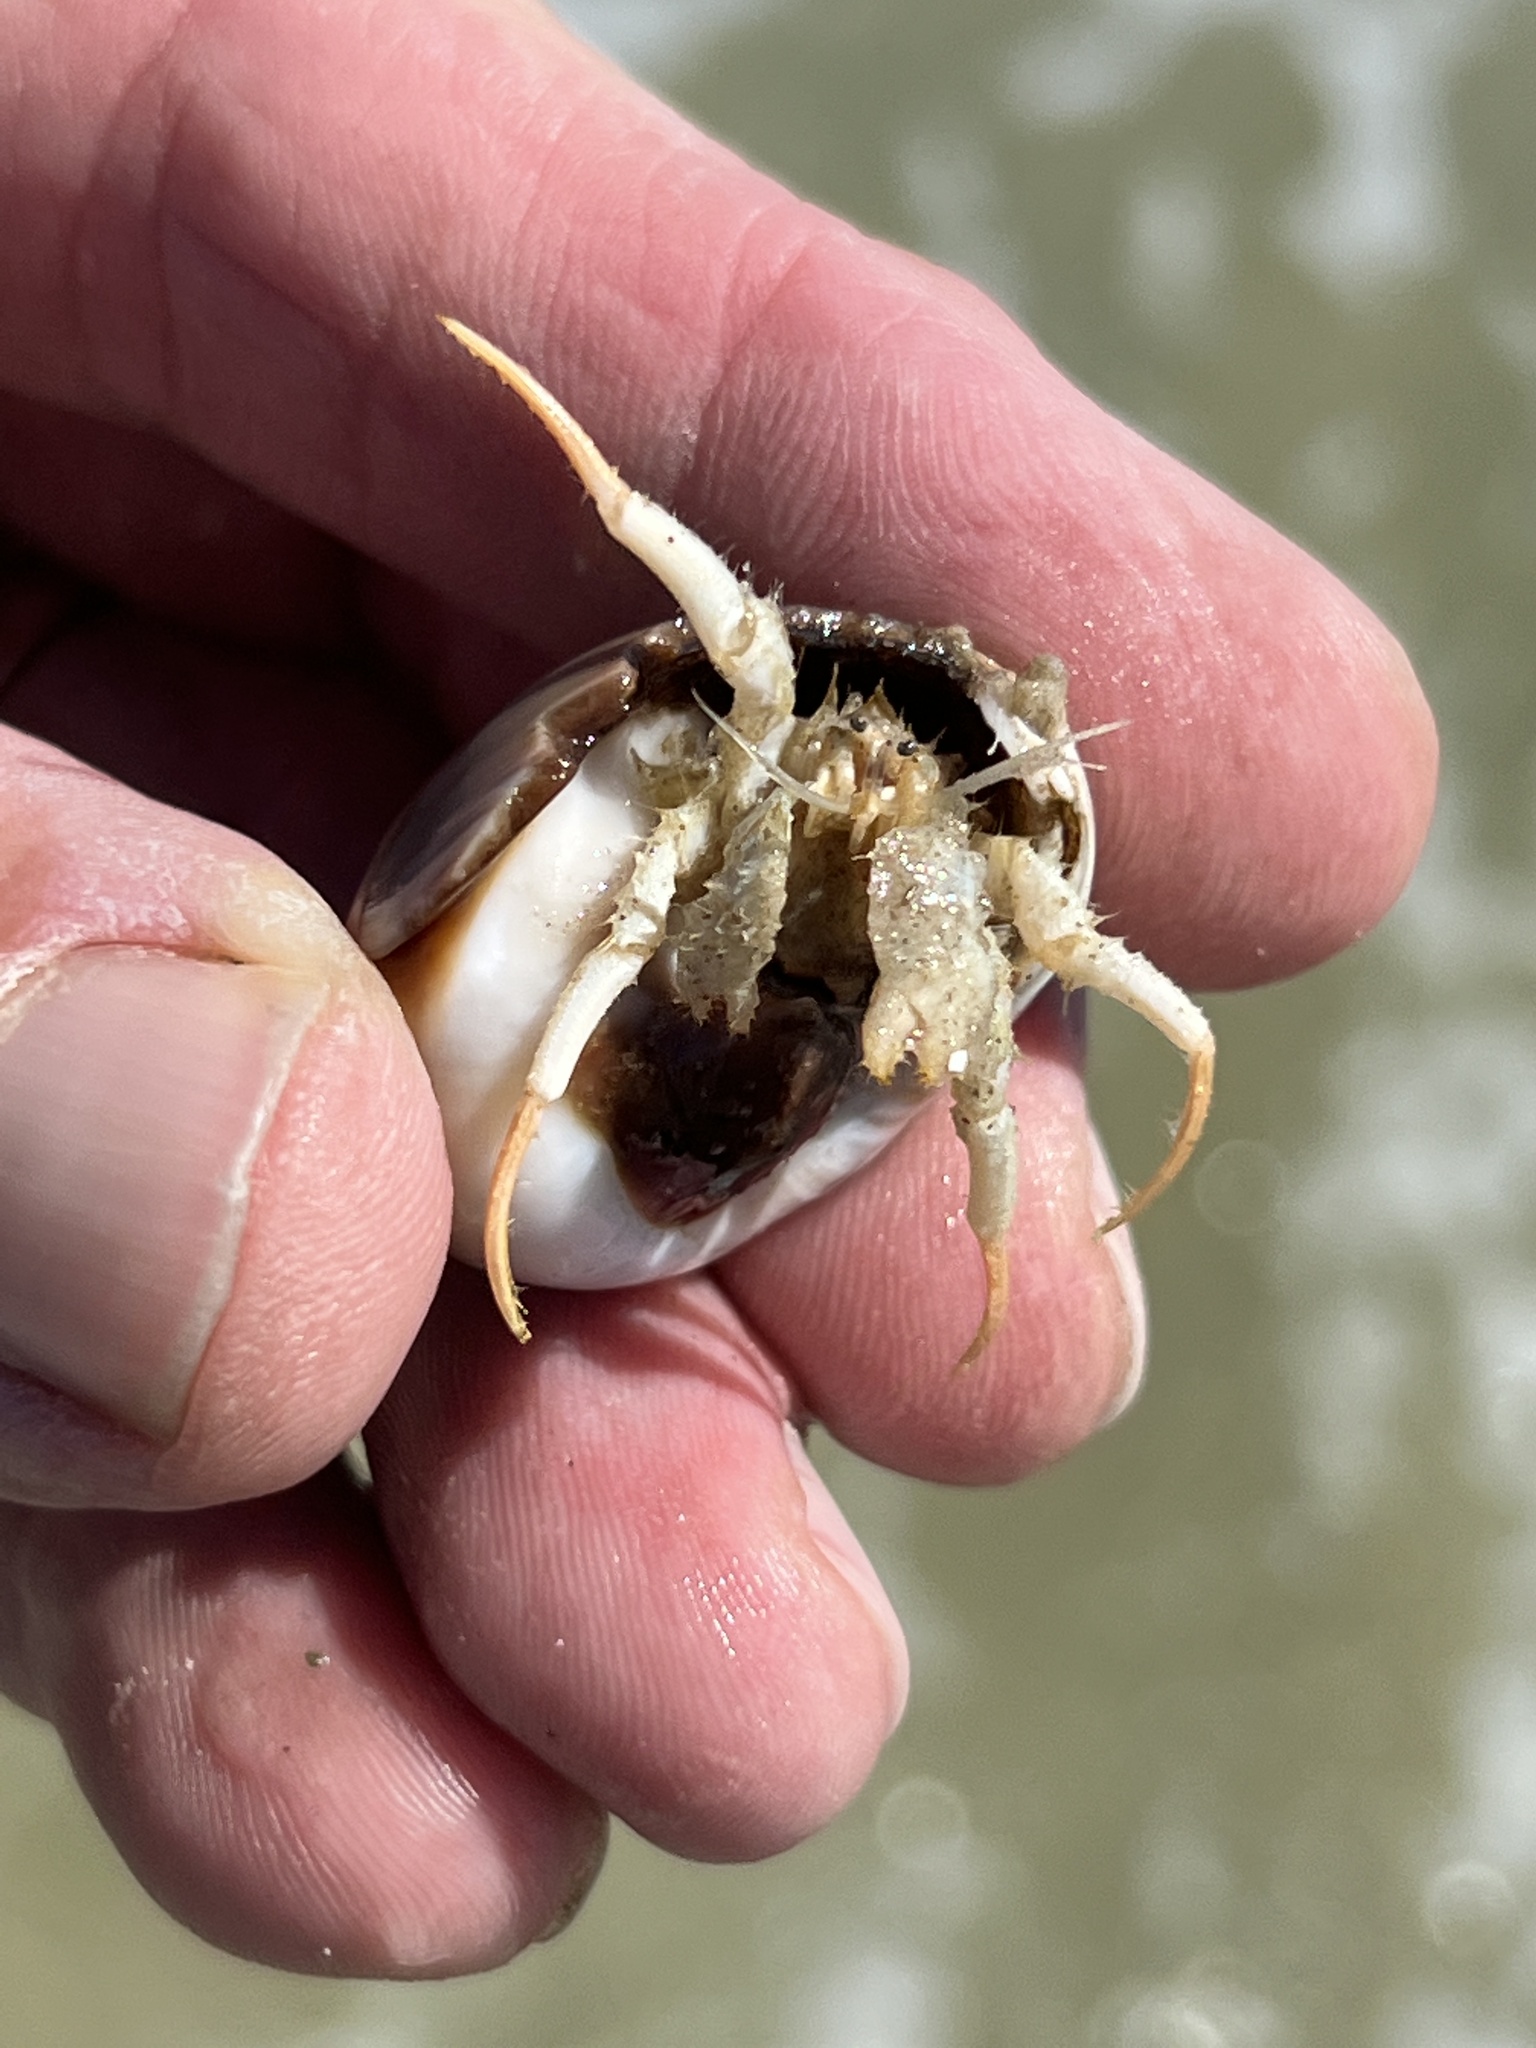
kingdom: Animalia
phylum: Arthropoda
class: Malacostraca
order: Decapoda
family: Diogenidae
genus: Isocheles
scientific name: Isocheles wurdemanni
